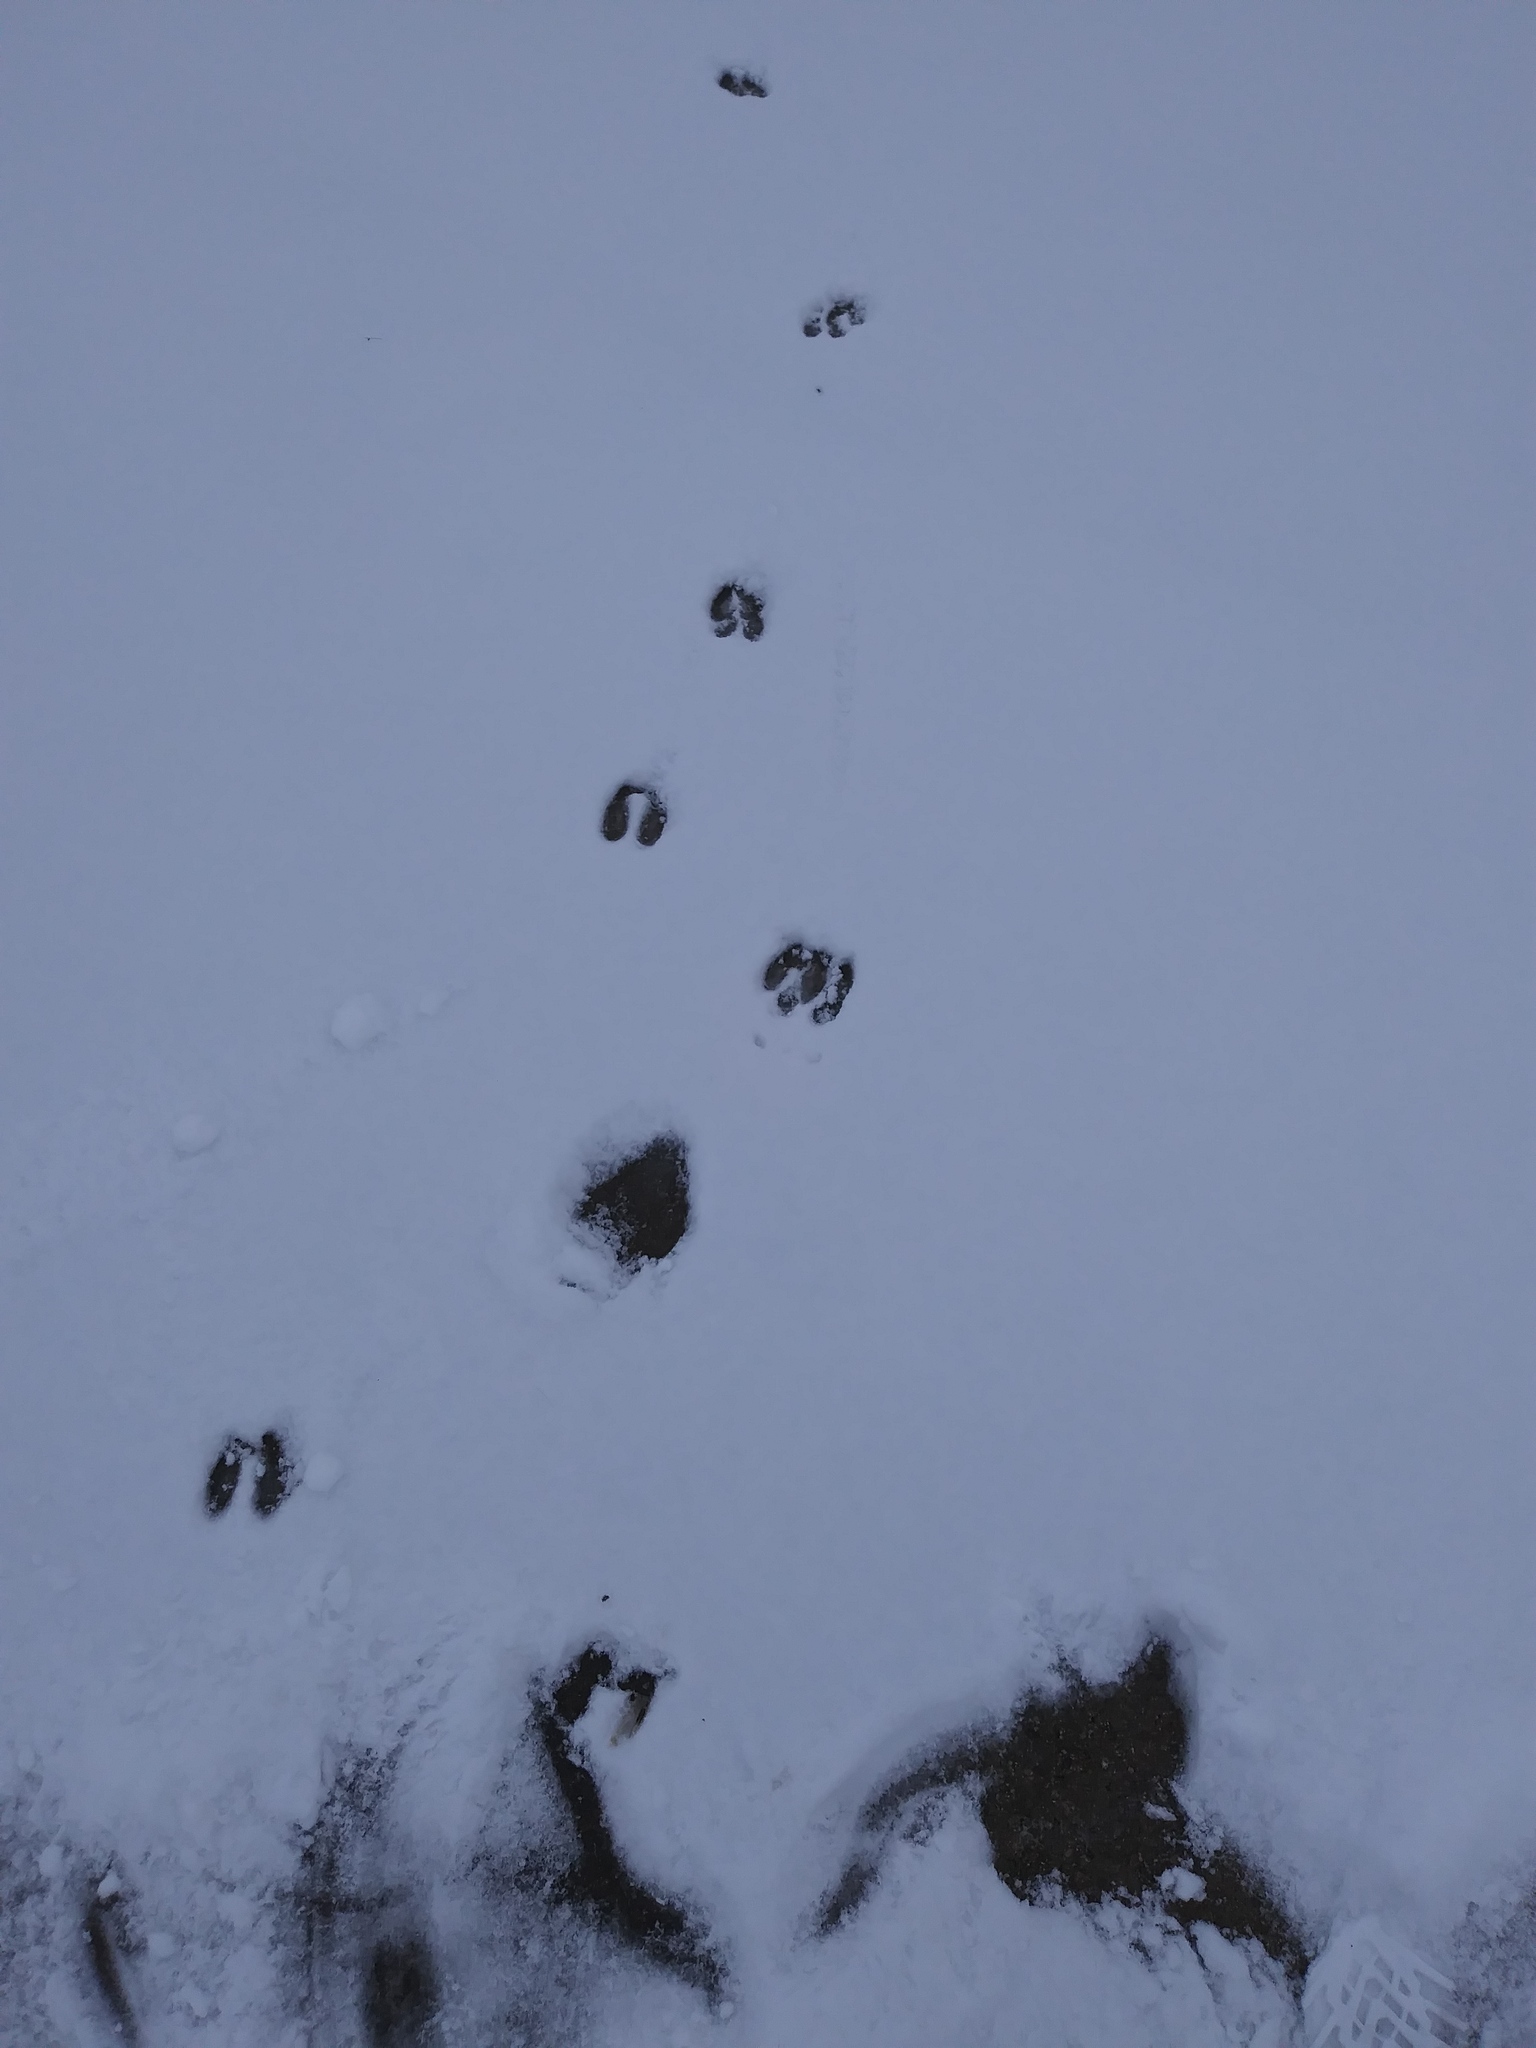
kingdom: Animalia
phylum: Chordata
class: Mammalia
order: Artiodactyla
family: Cervidae
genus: Odocoileus
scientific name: Odocoileus virginianus
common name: White-tailed deer
